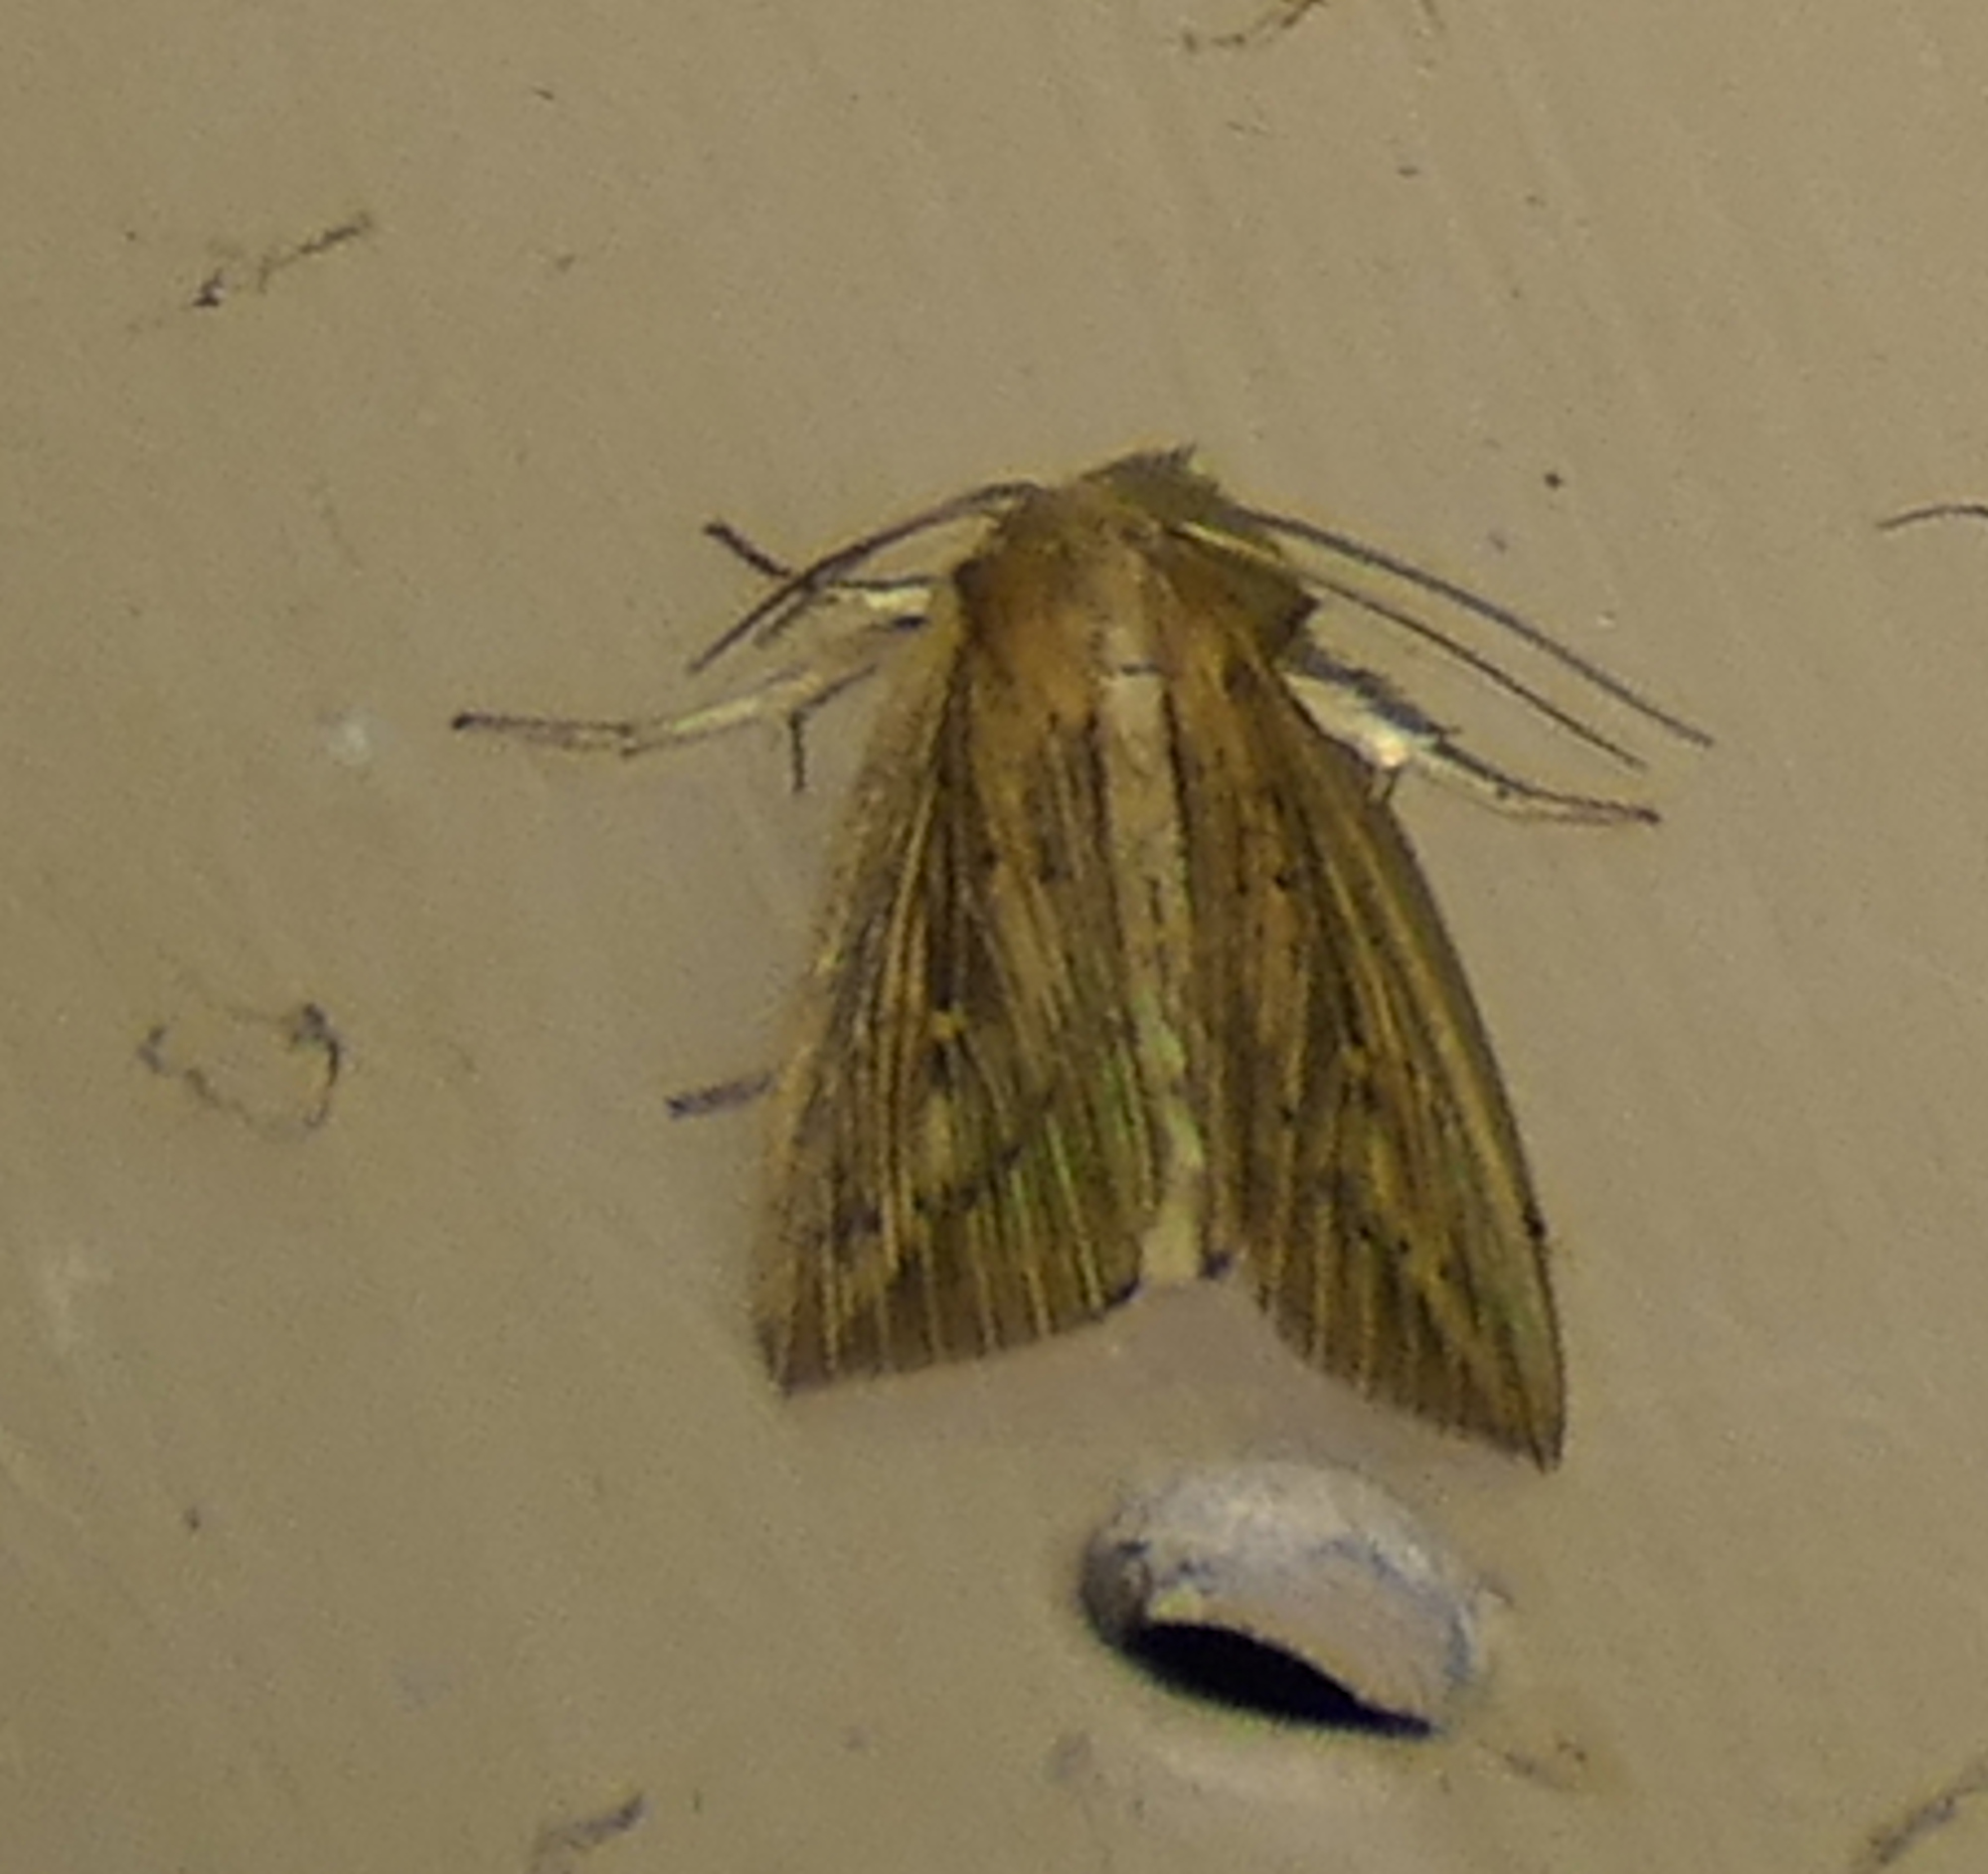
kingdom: Animalia
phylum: Arthropoda
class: Insecta
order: Lepidoptera
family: Noctuidae
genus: Leucania
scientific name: Leucania linita
